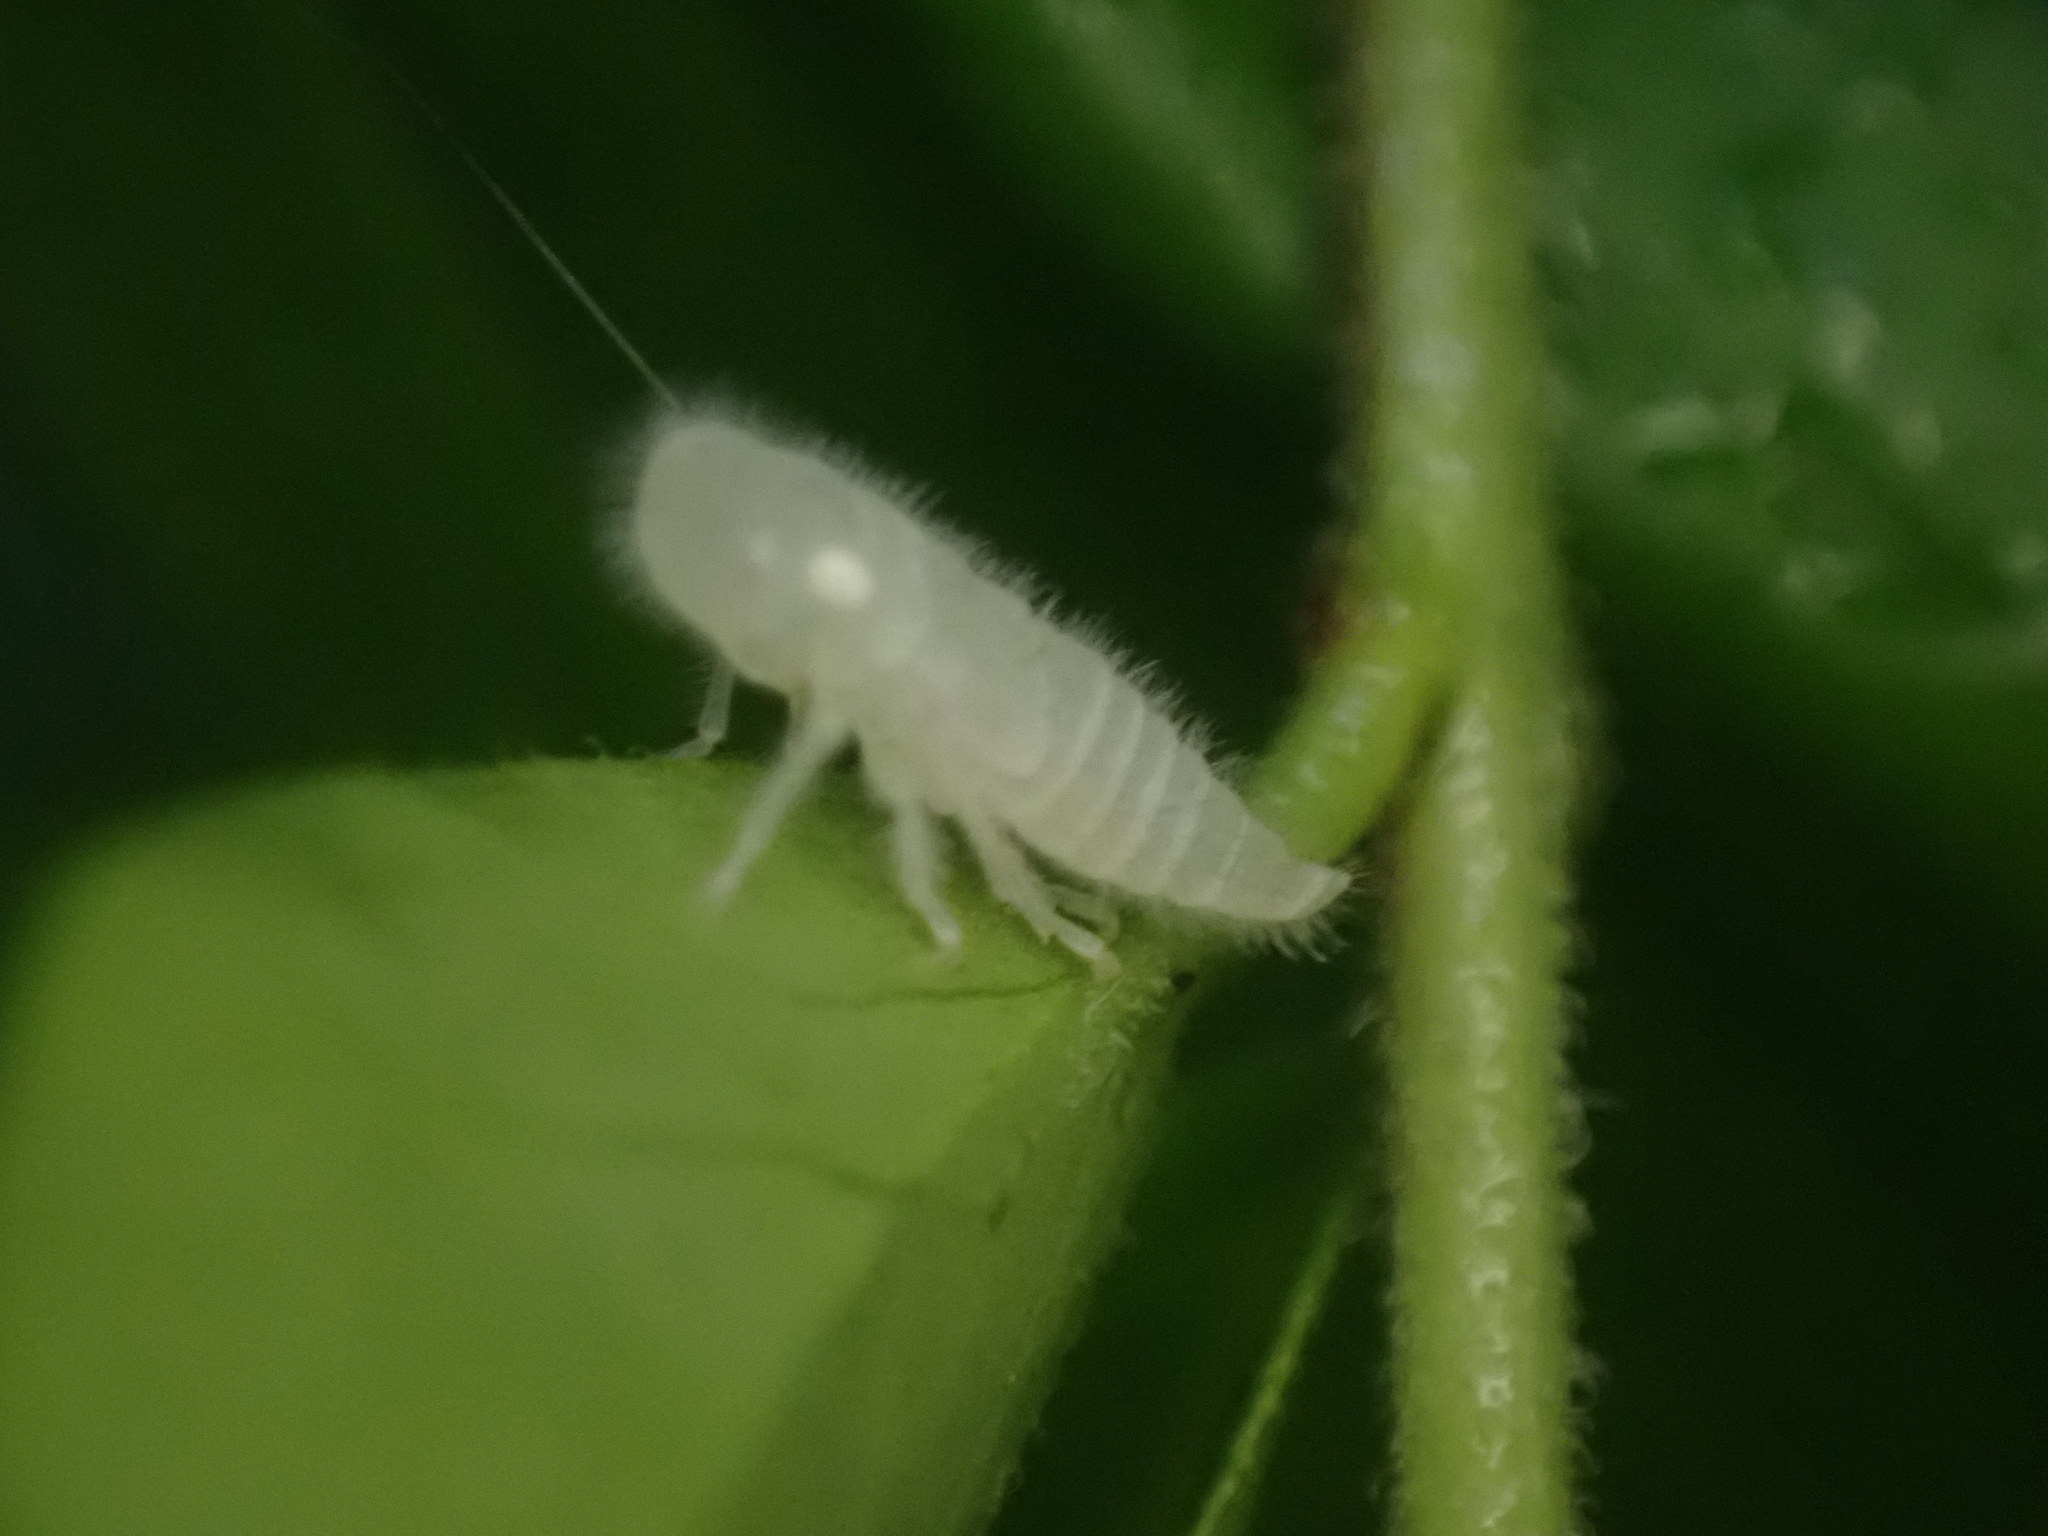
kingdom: Animalia
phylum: Arthropoda
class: Insecta
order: Hemiptera
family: Cicadellidae
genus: Paraulacizes
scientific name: Paraulacizes irrorata
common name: Speckled sharpshooter
